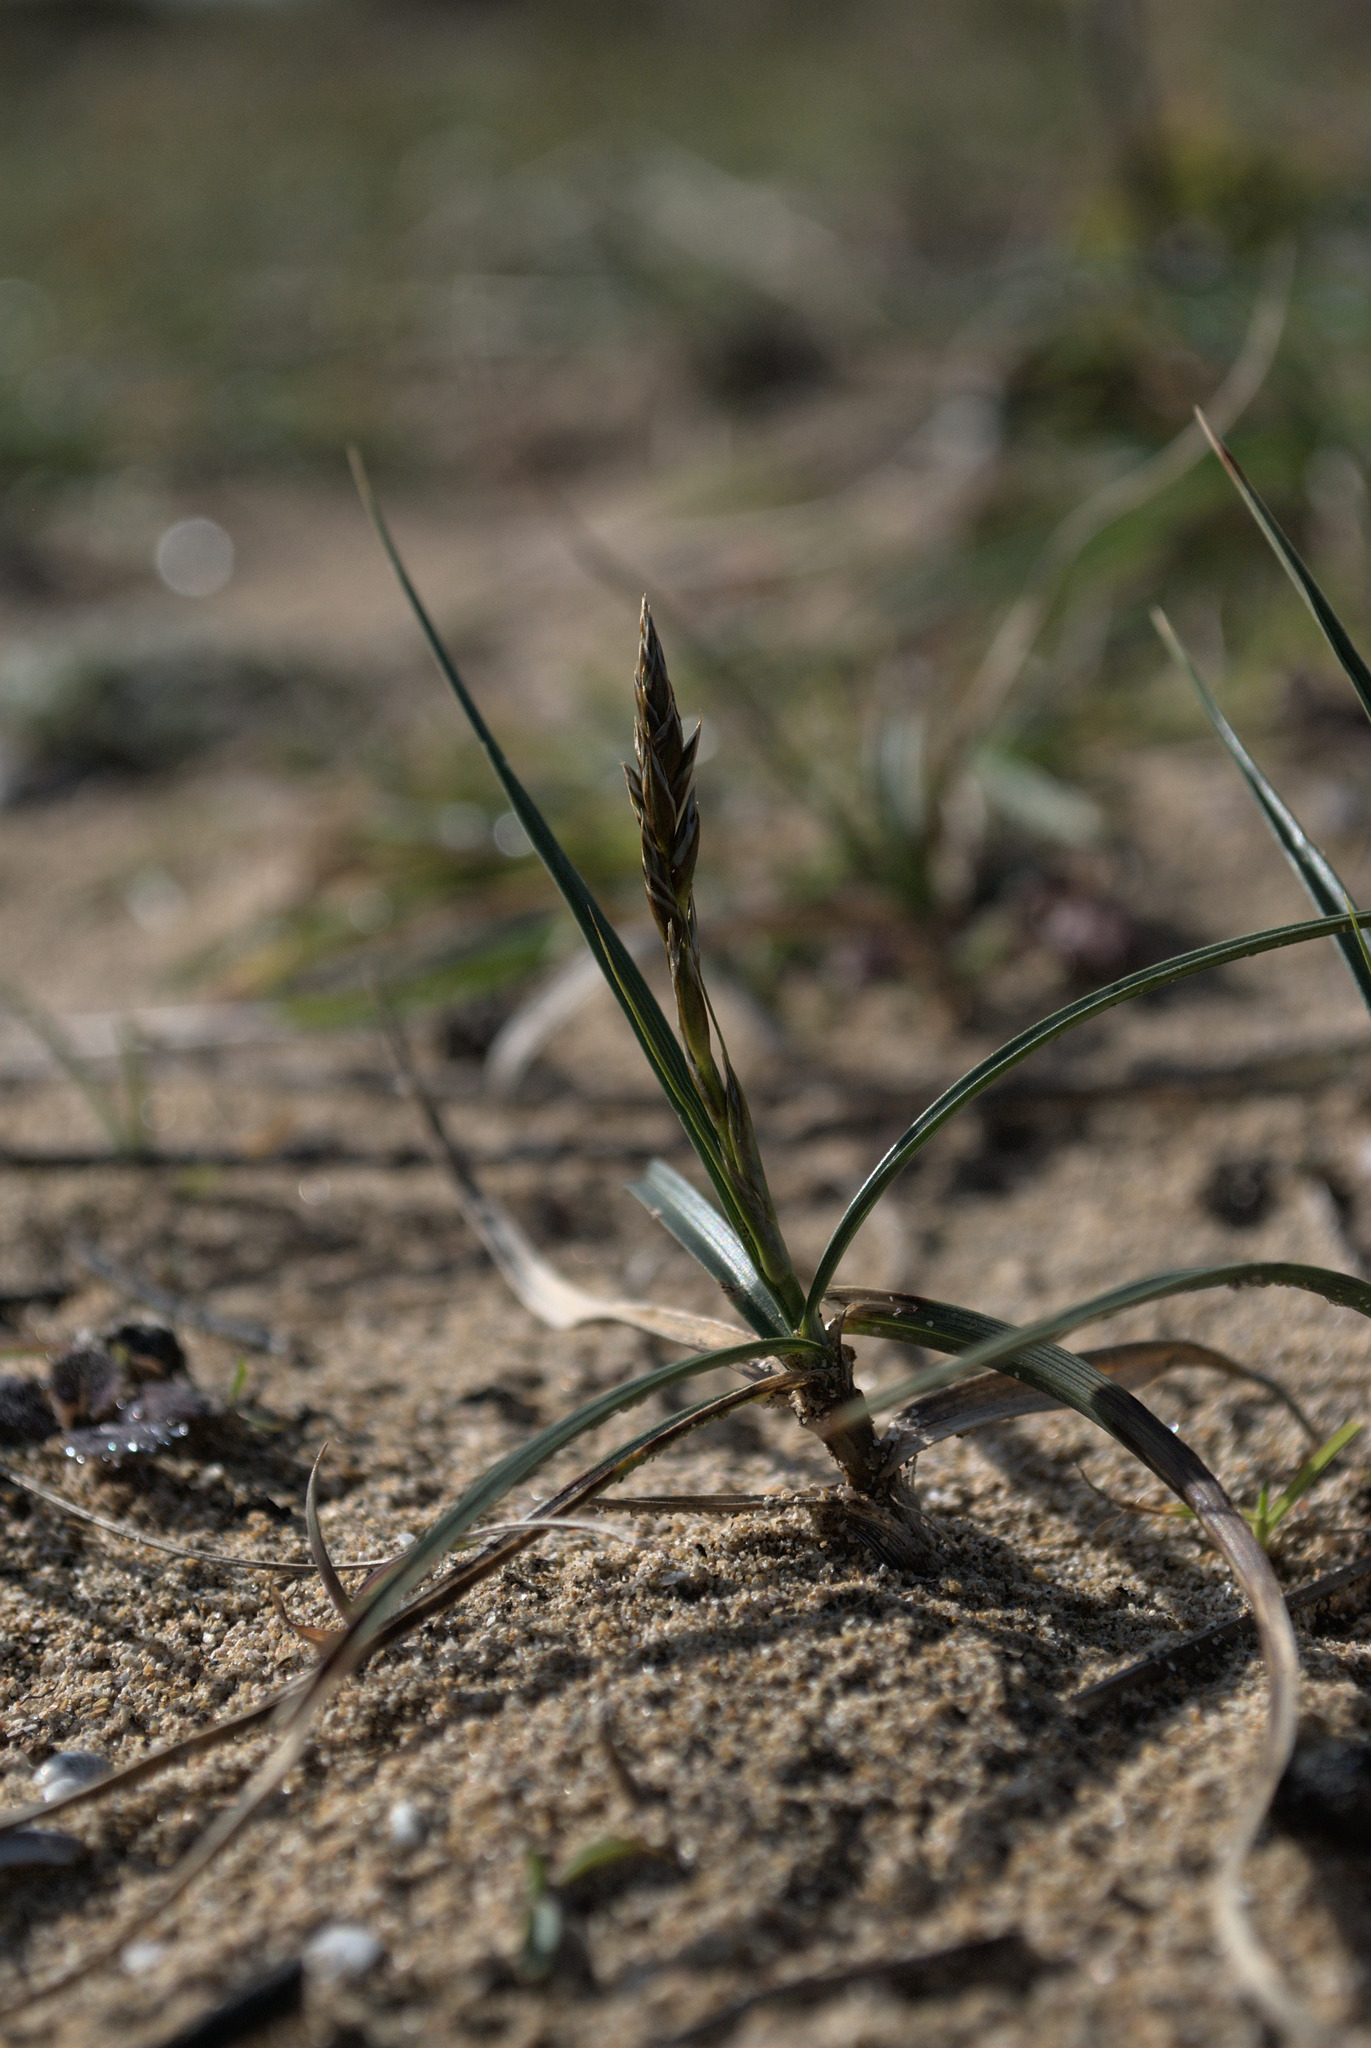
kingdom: Plantae
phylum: Tracheophyta
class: Liliopsida
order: Poales
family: Cyperaceae
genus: Carex
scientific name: Carex arenaria
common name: Sand sedge
